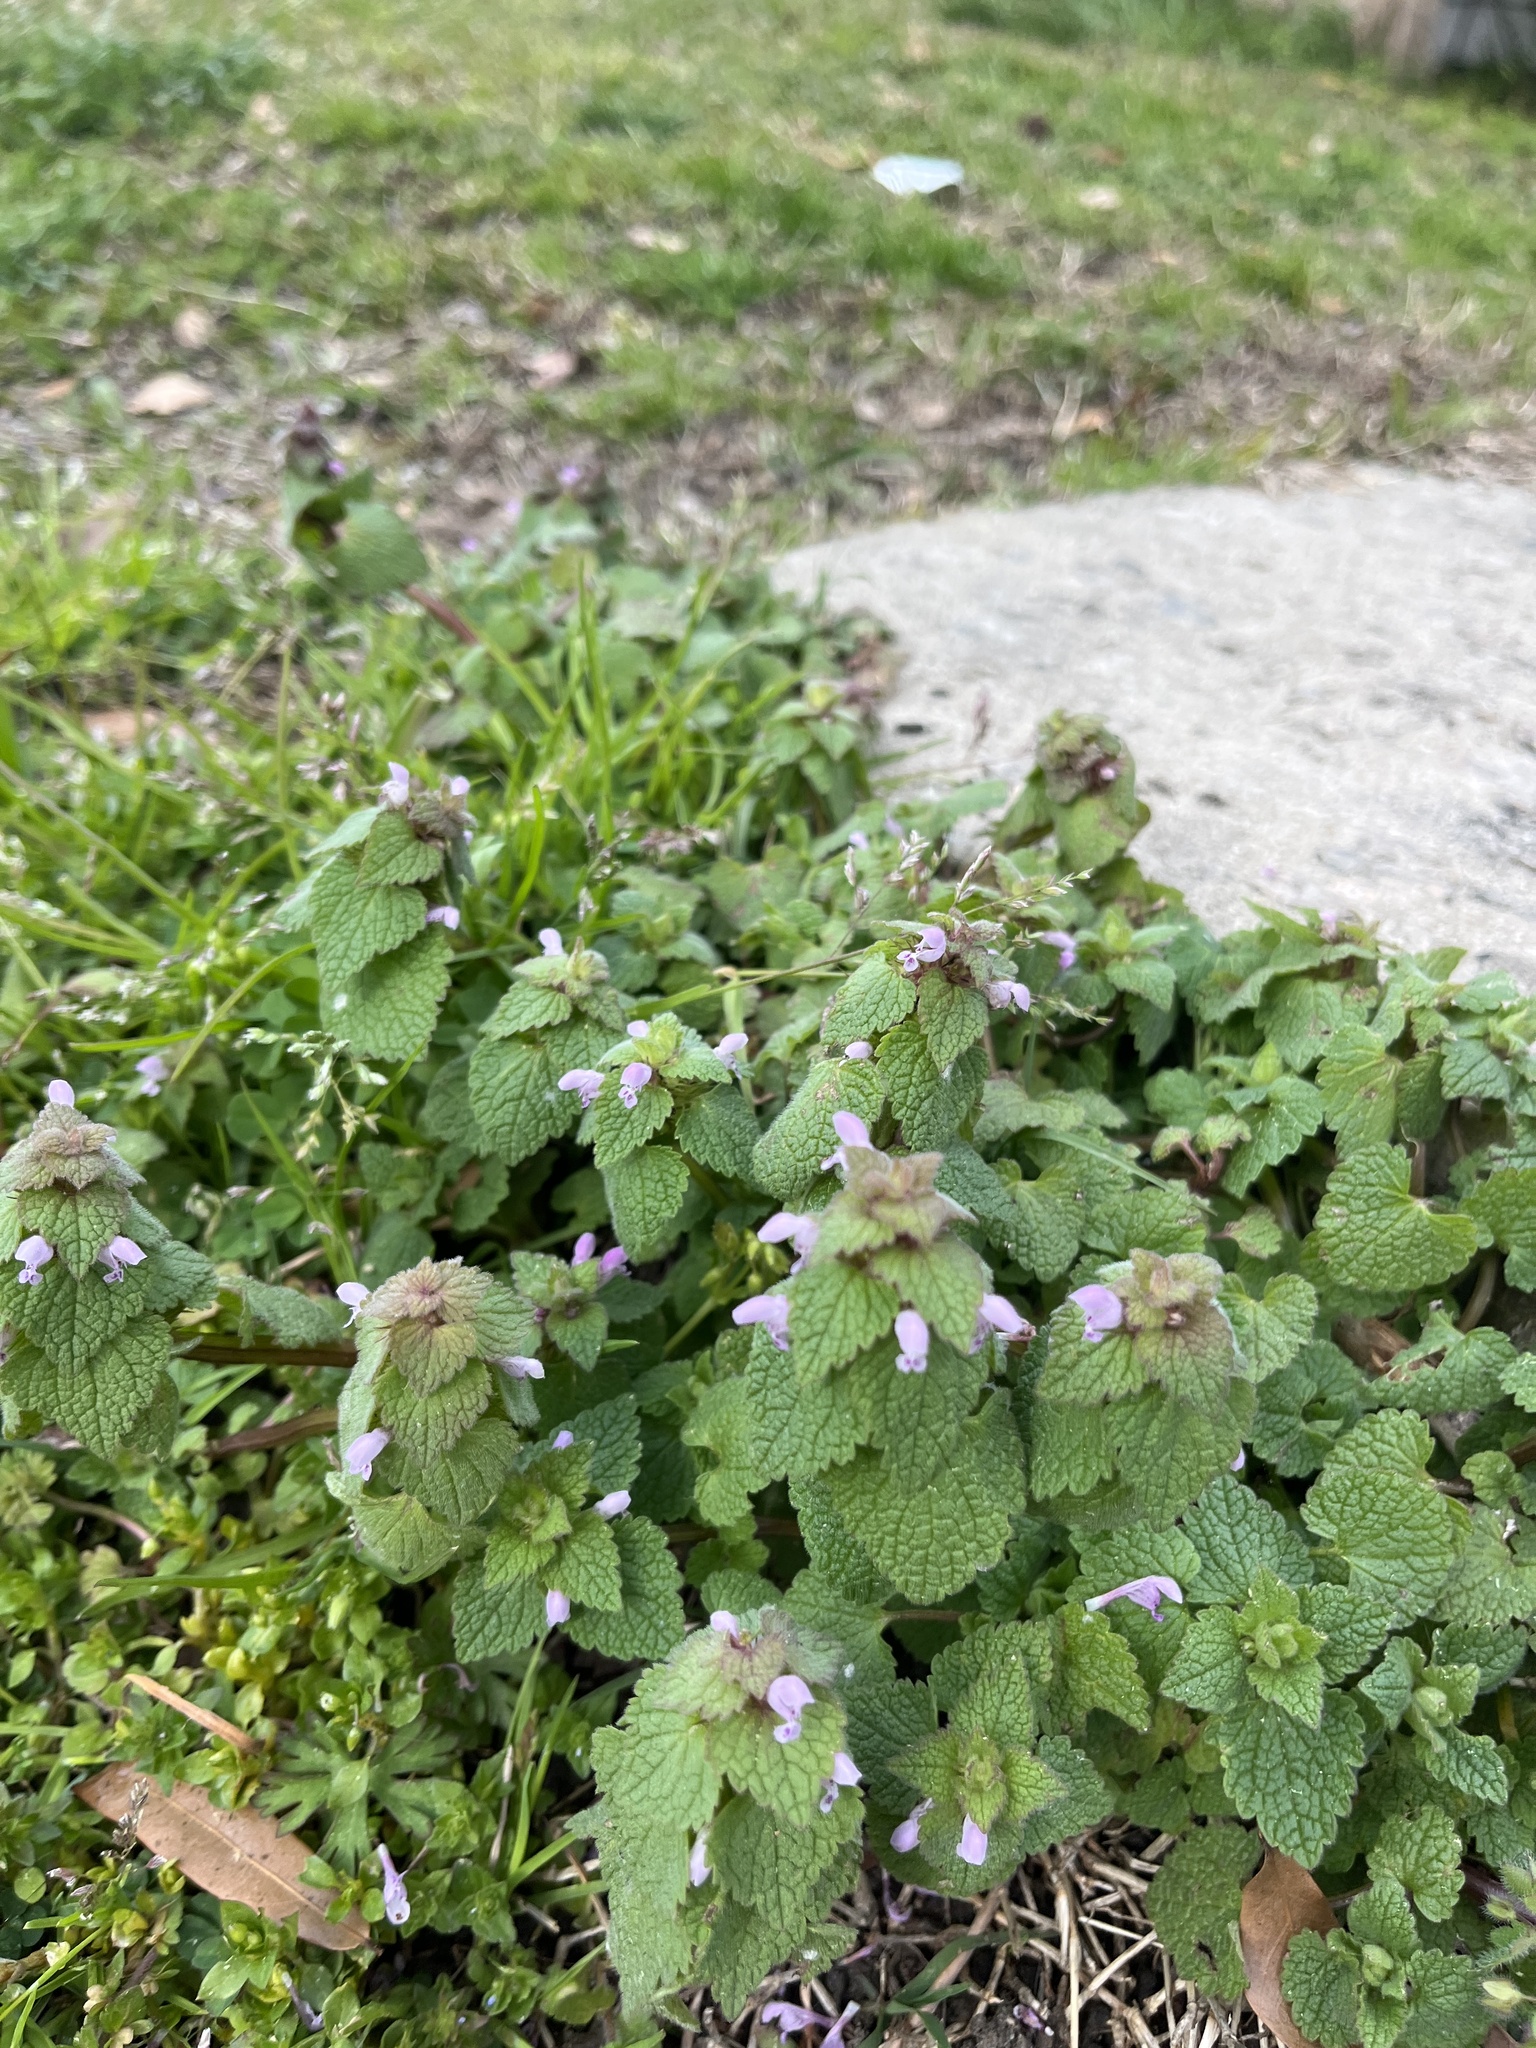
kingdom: Plantae
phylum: Tracheophyta
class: Magnoliopsida
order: Lamiales
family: Lamiaceae
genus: Lamium
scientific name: Lamium purpureum
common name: Red dead-nettle
